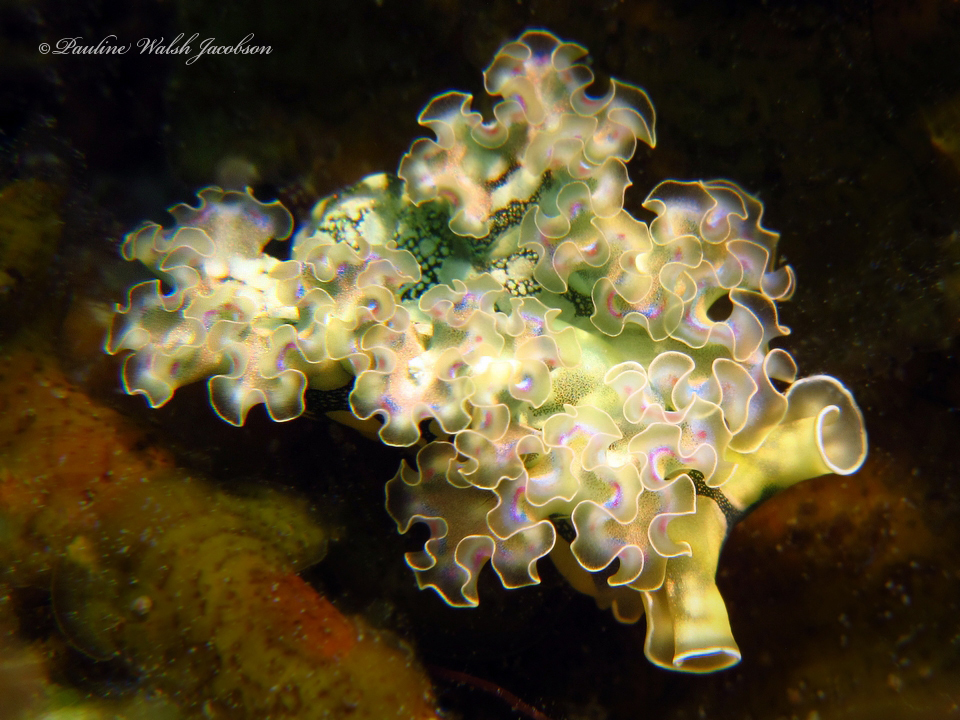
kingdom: Animalia
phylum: Mollusca
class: Gastropoda
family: Plakobranchidae
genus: Elysia
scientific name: Elysia crispata
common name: Lettuce slug
